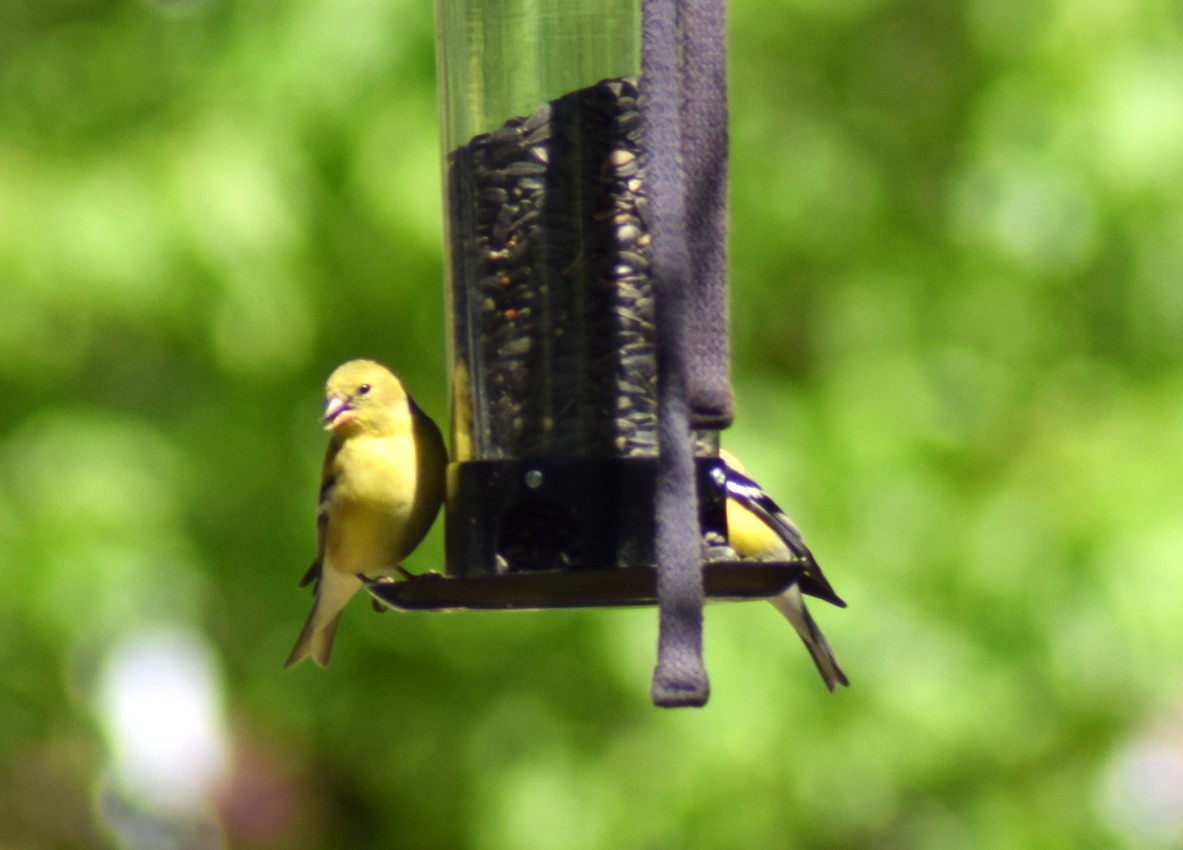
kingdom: Animalia
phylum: Chordata
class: Aves
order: Passeriformes
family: Fringillidae
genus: Spinus
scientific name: Spinus tristis
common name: American goldfinch
